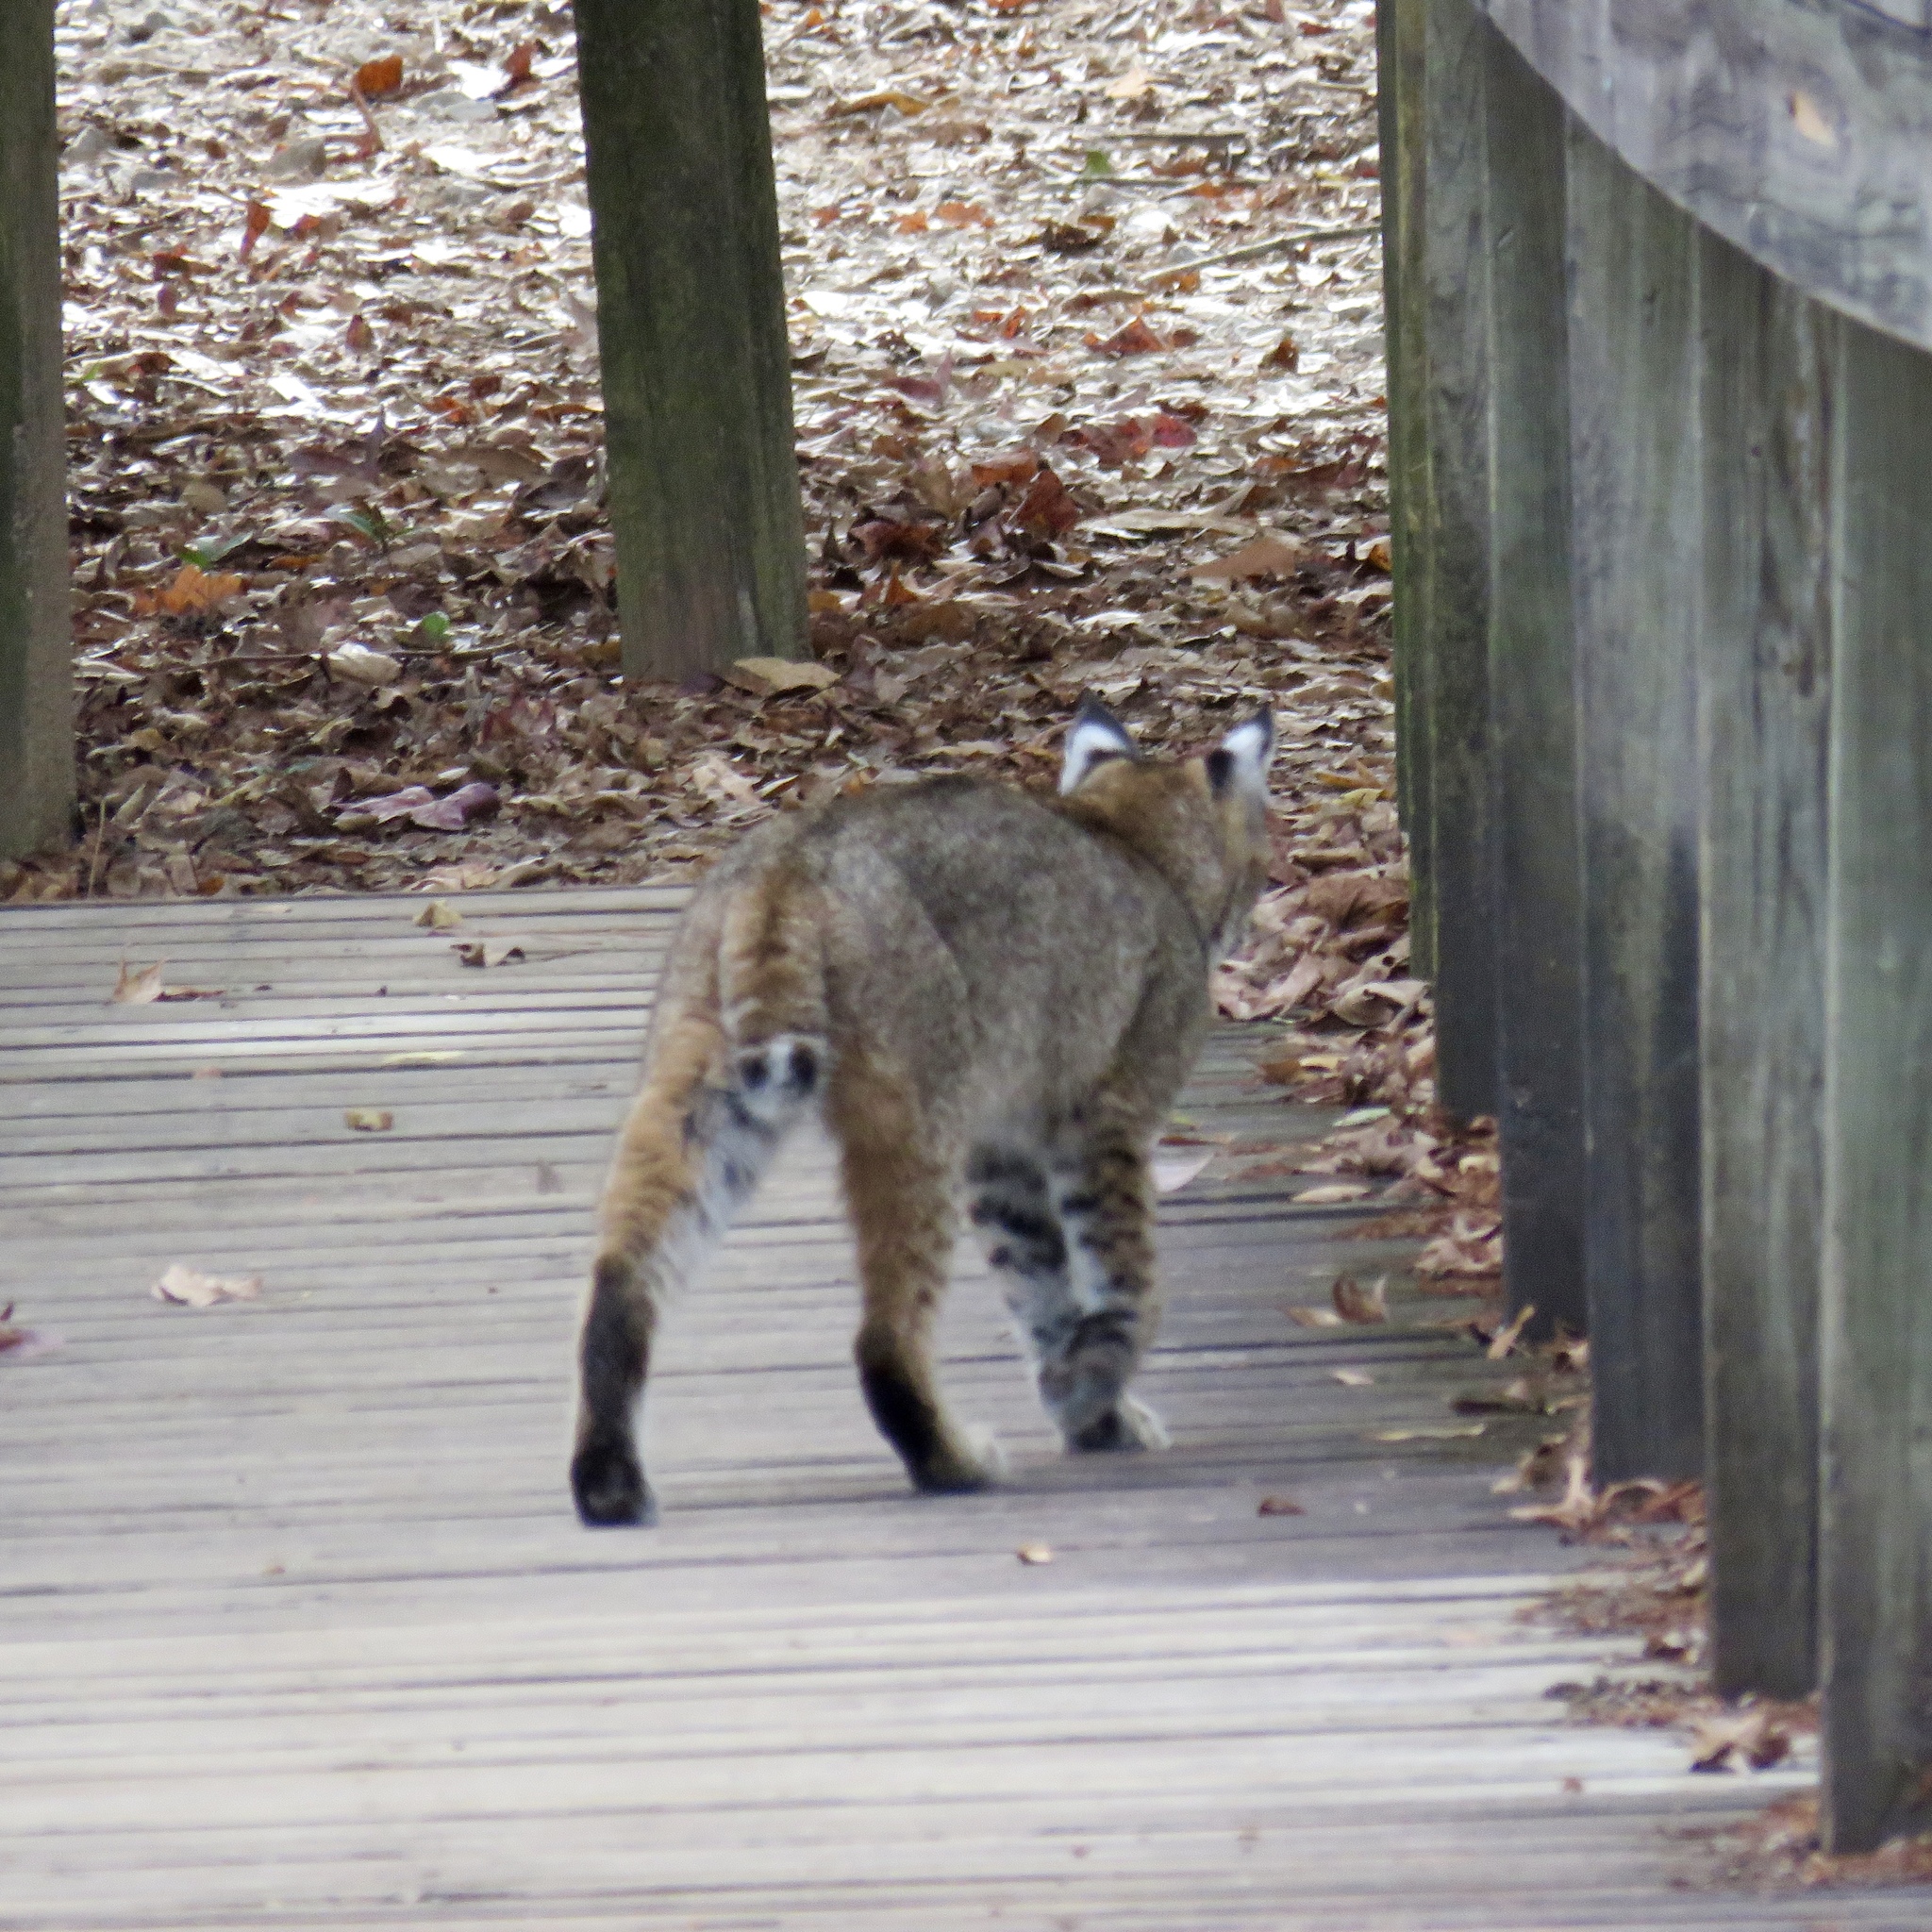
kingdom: Animalia
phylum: Chordata
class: Mammalia
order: Carnivora
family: Felidae
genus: Lynx
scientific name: Lynx rufus
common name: Bobcat
